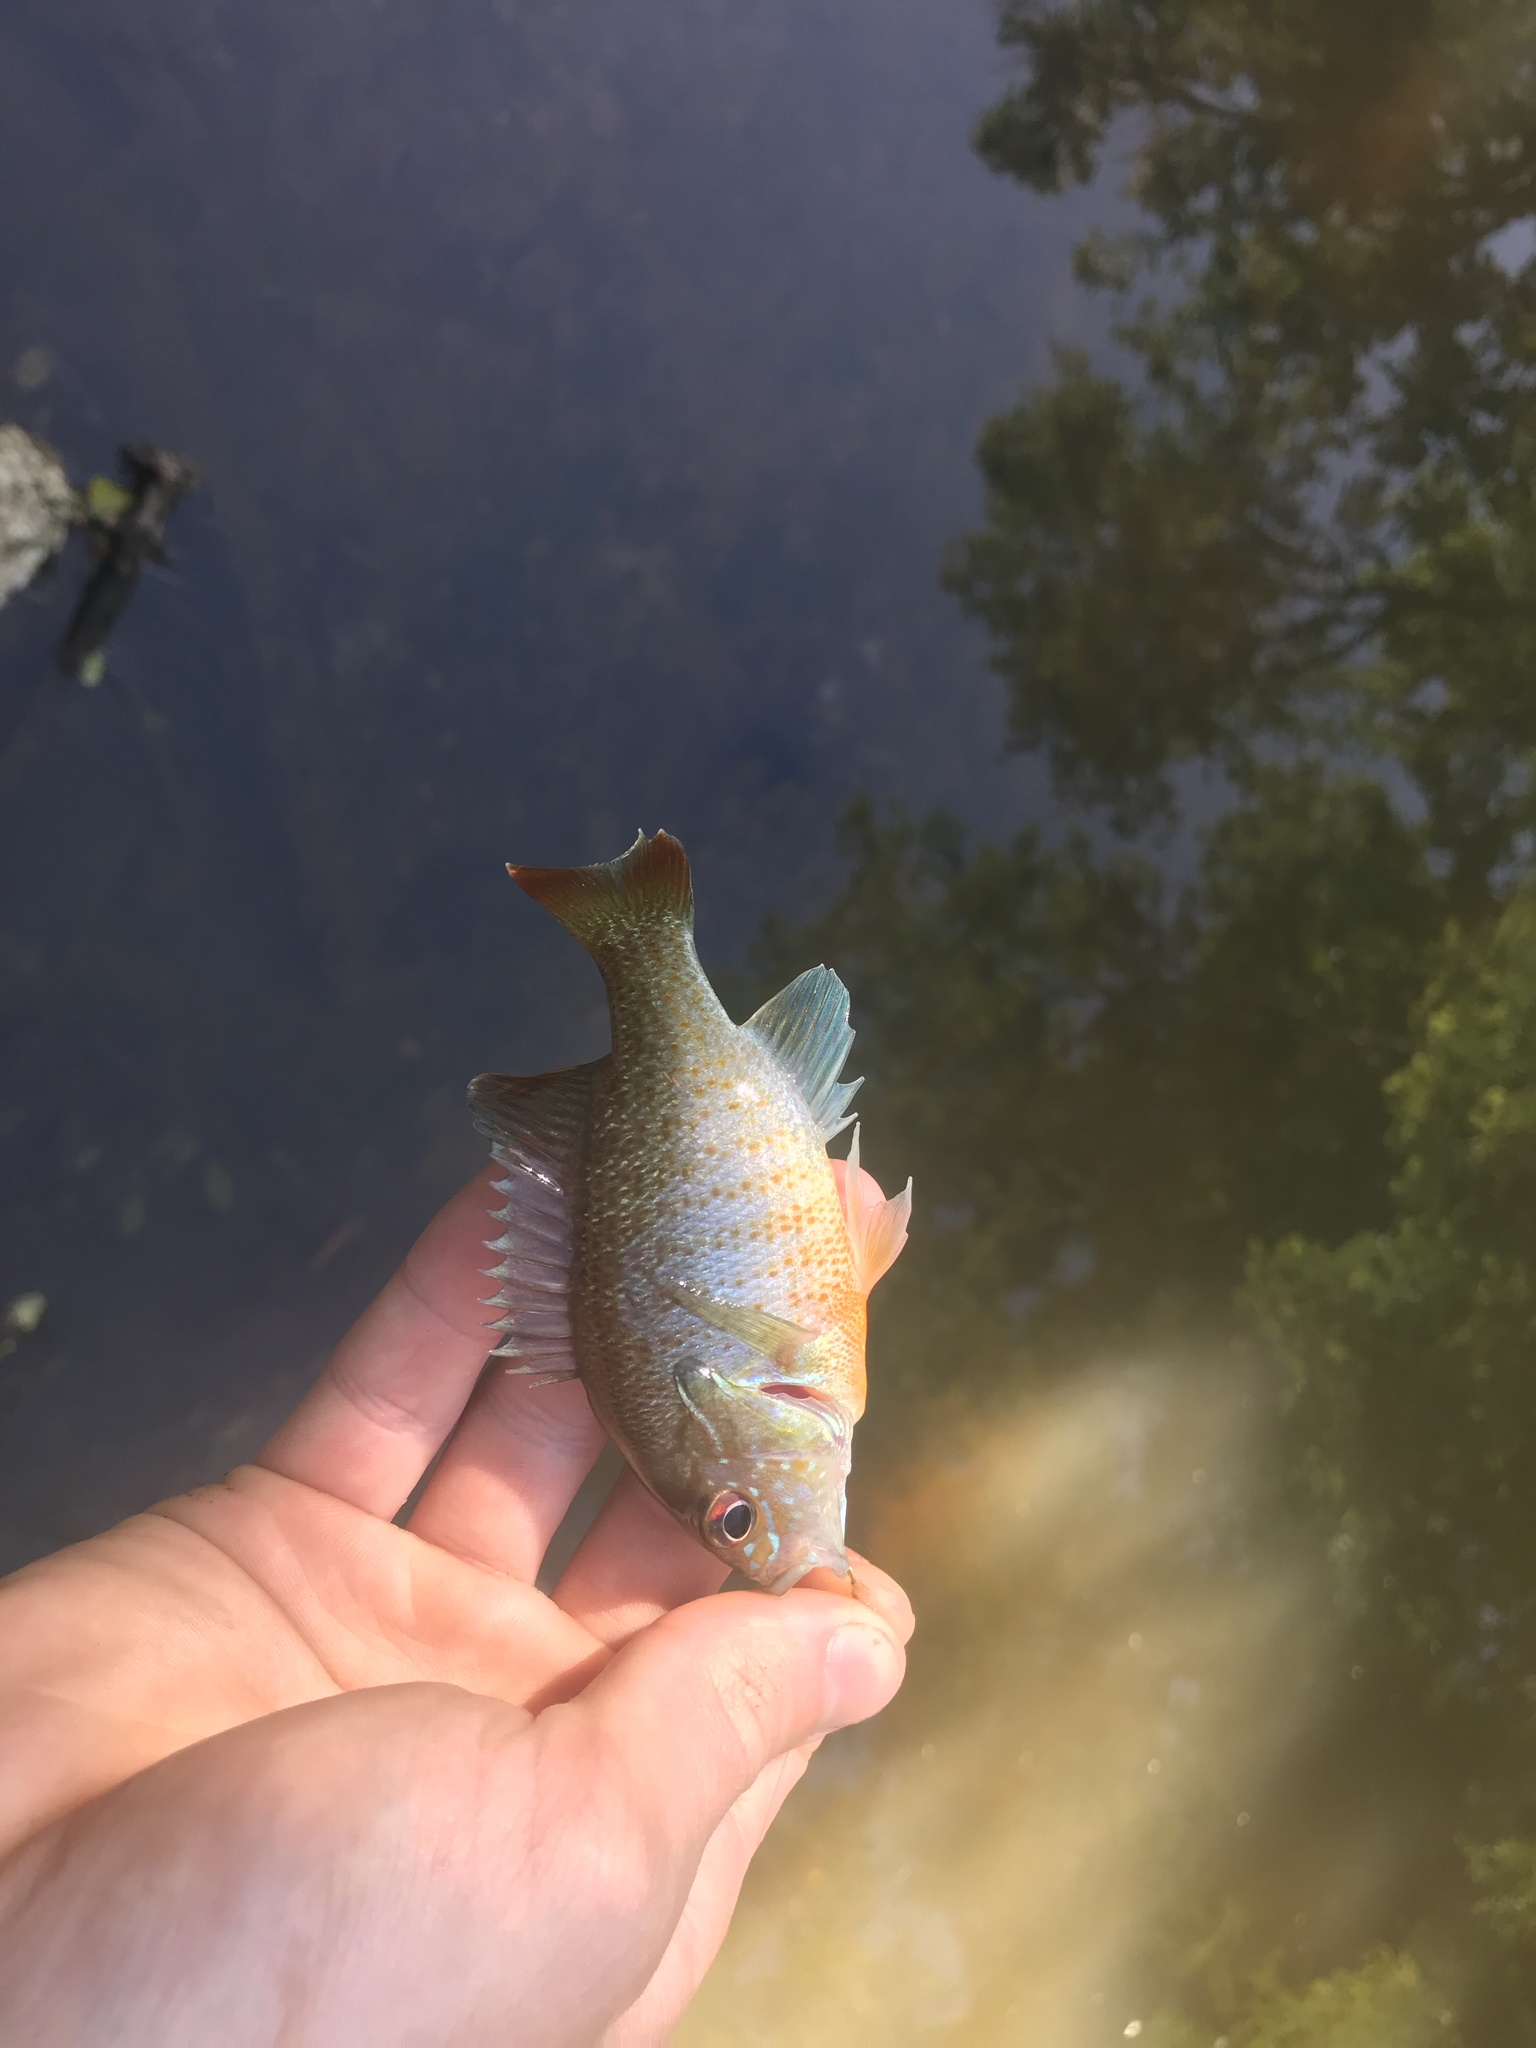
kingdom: Animalia
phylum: Chordata
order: Perciformes
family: Centrarchidae
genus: Lepomis
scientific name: Lepomis auritus
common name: Redbreast sunfish
